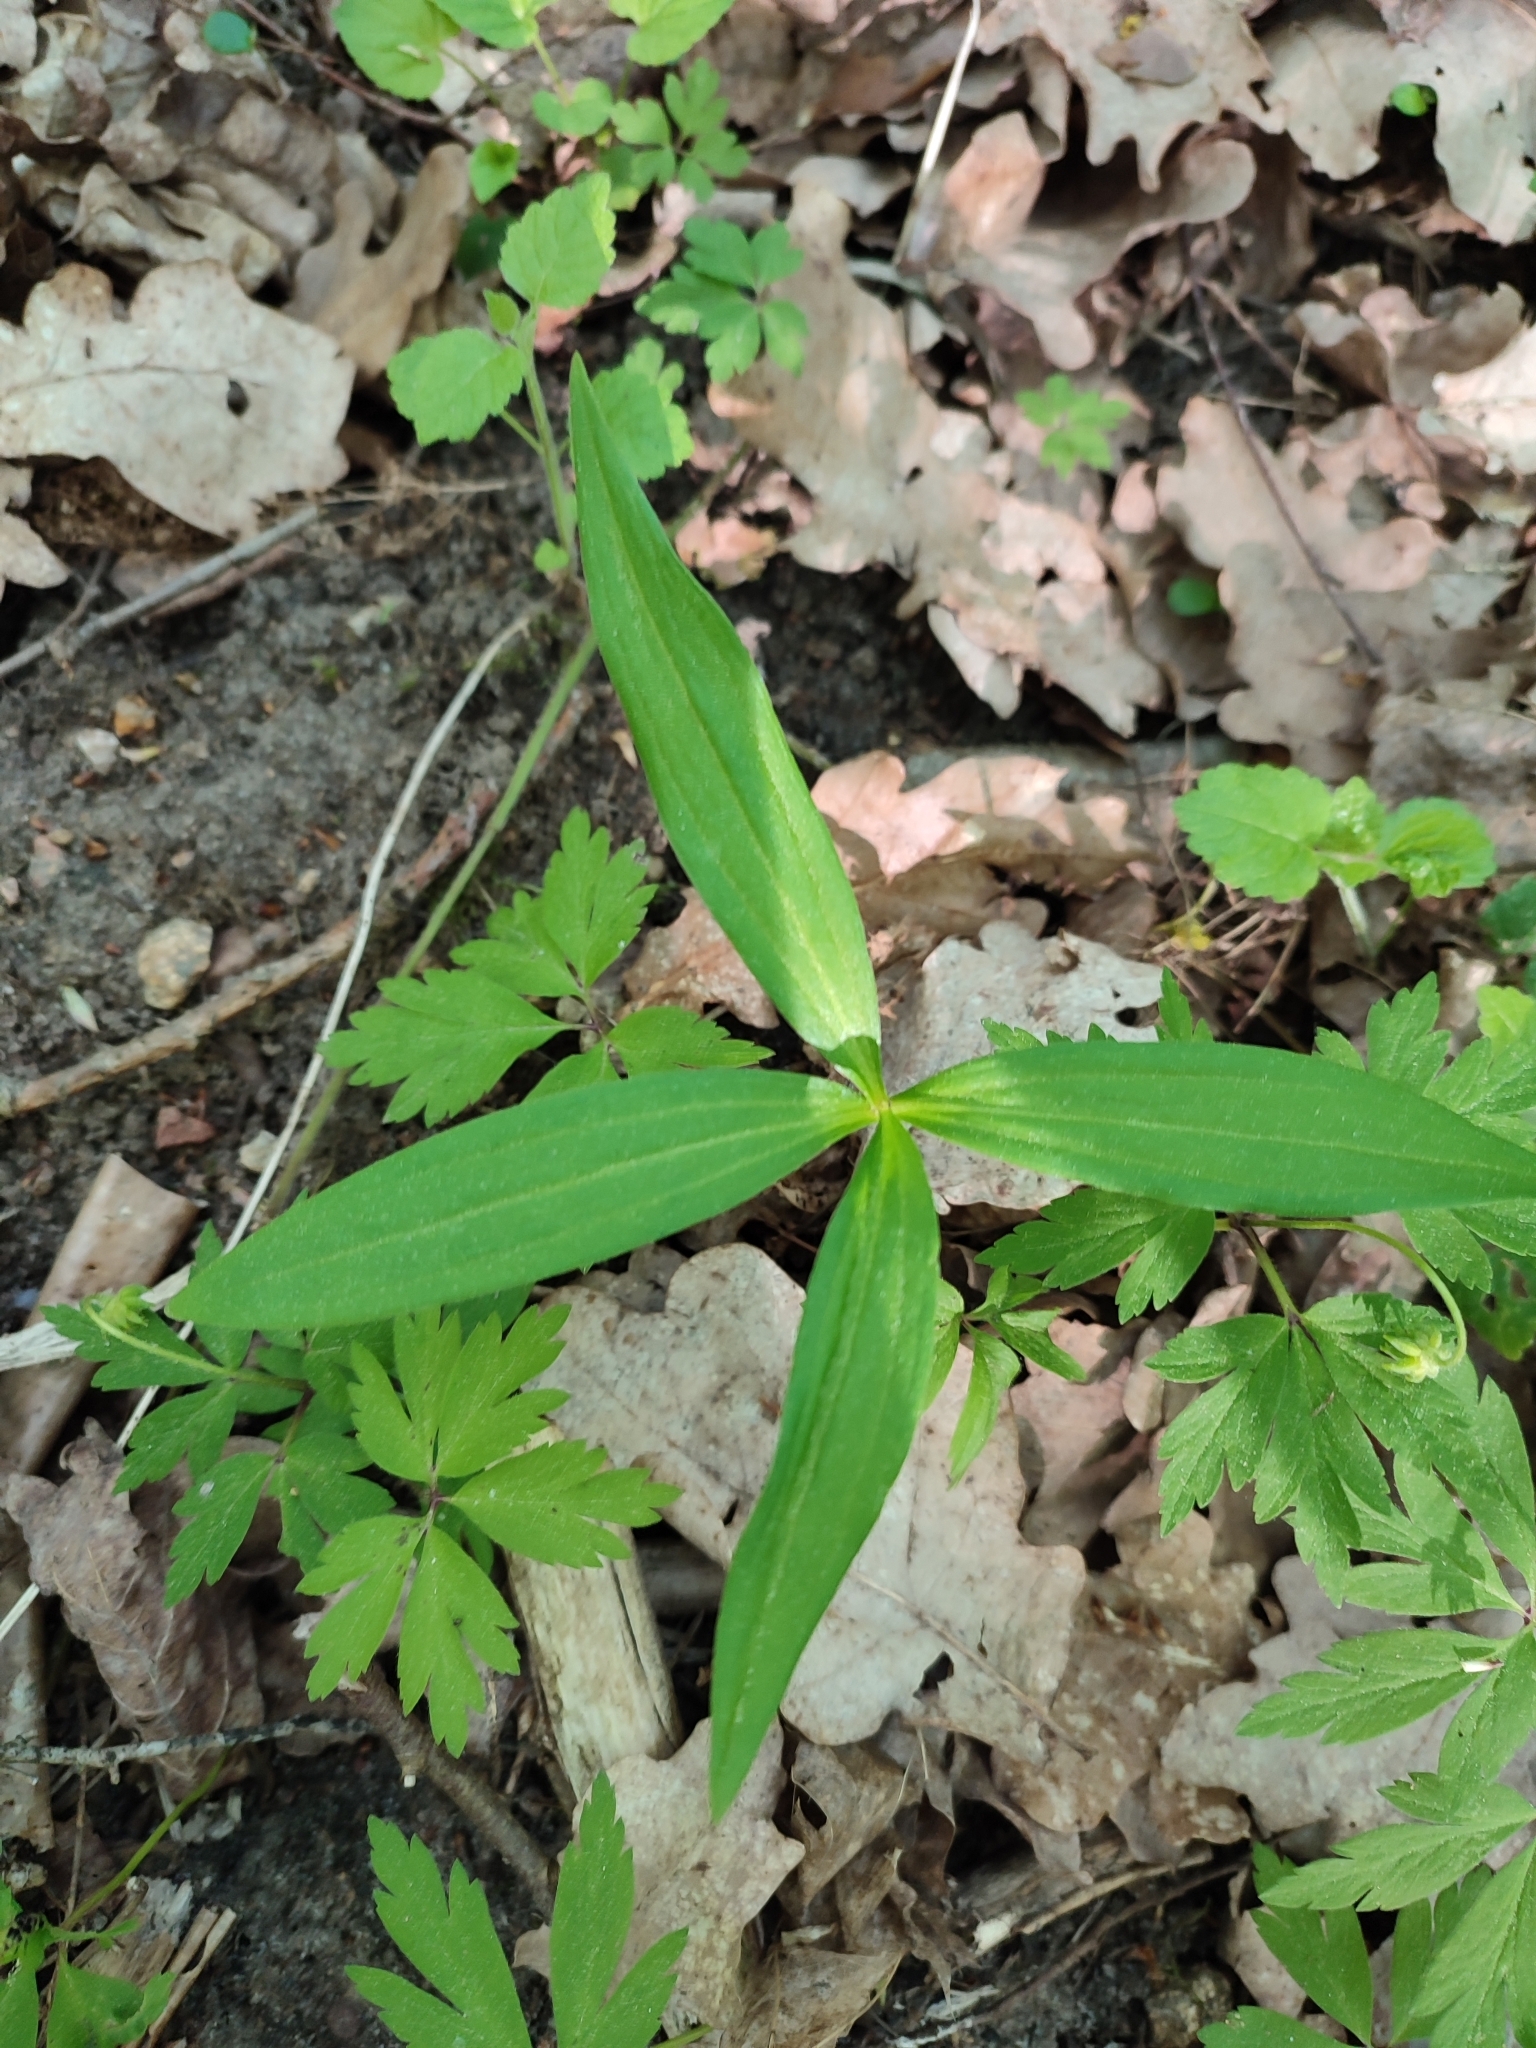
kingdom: Plantae
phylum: Tracheophyta
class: Liliopsida
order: Liliales
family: Liliaceae
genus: Lilium
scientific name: Lilium martagon
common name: Martagon lily
